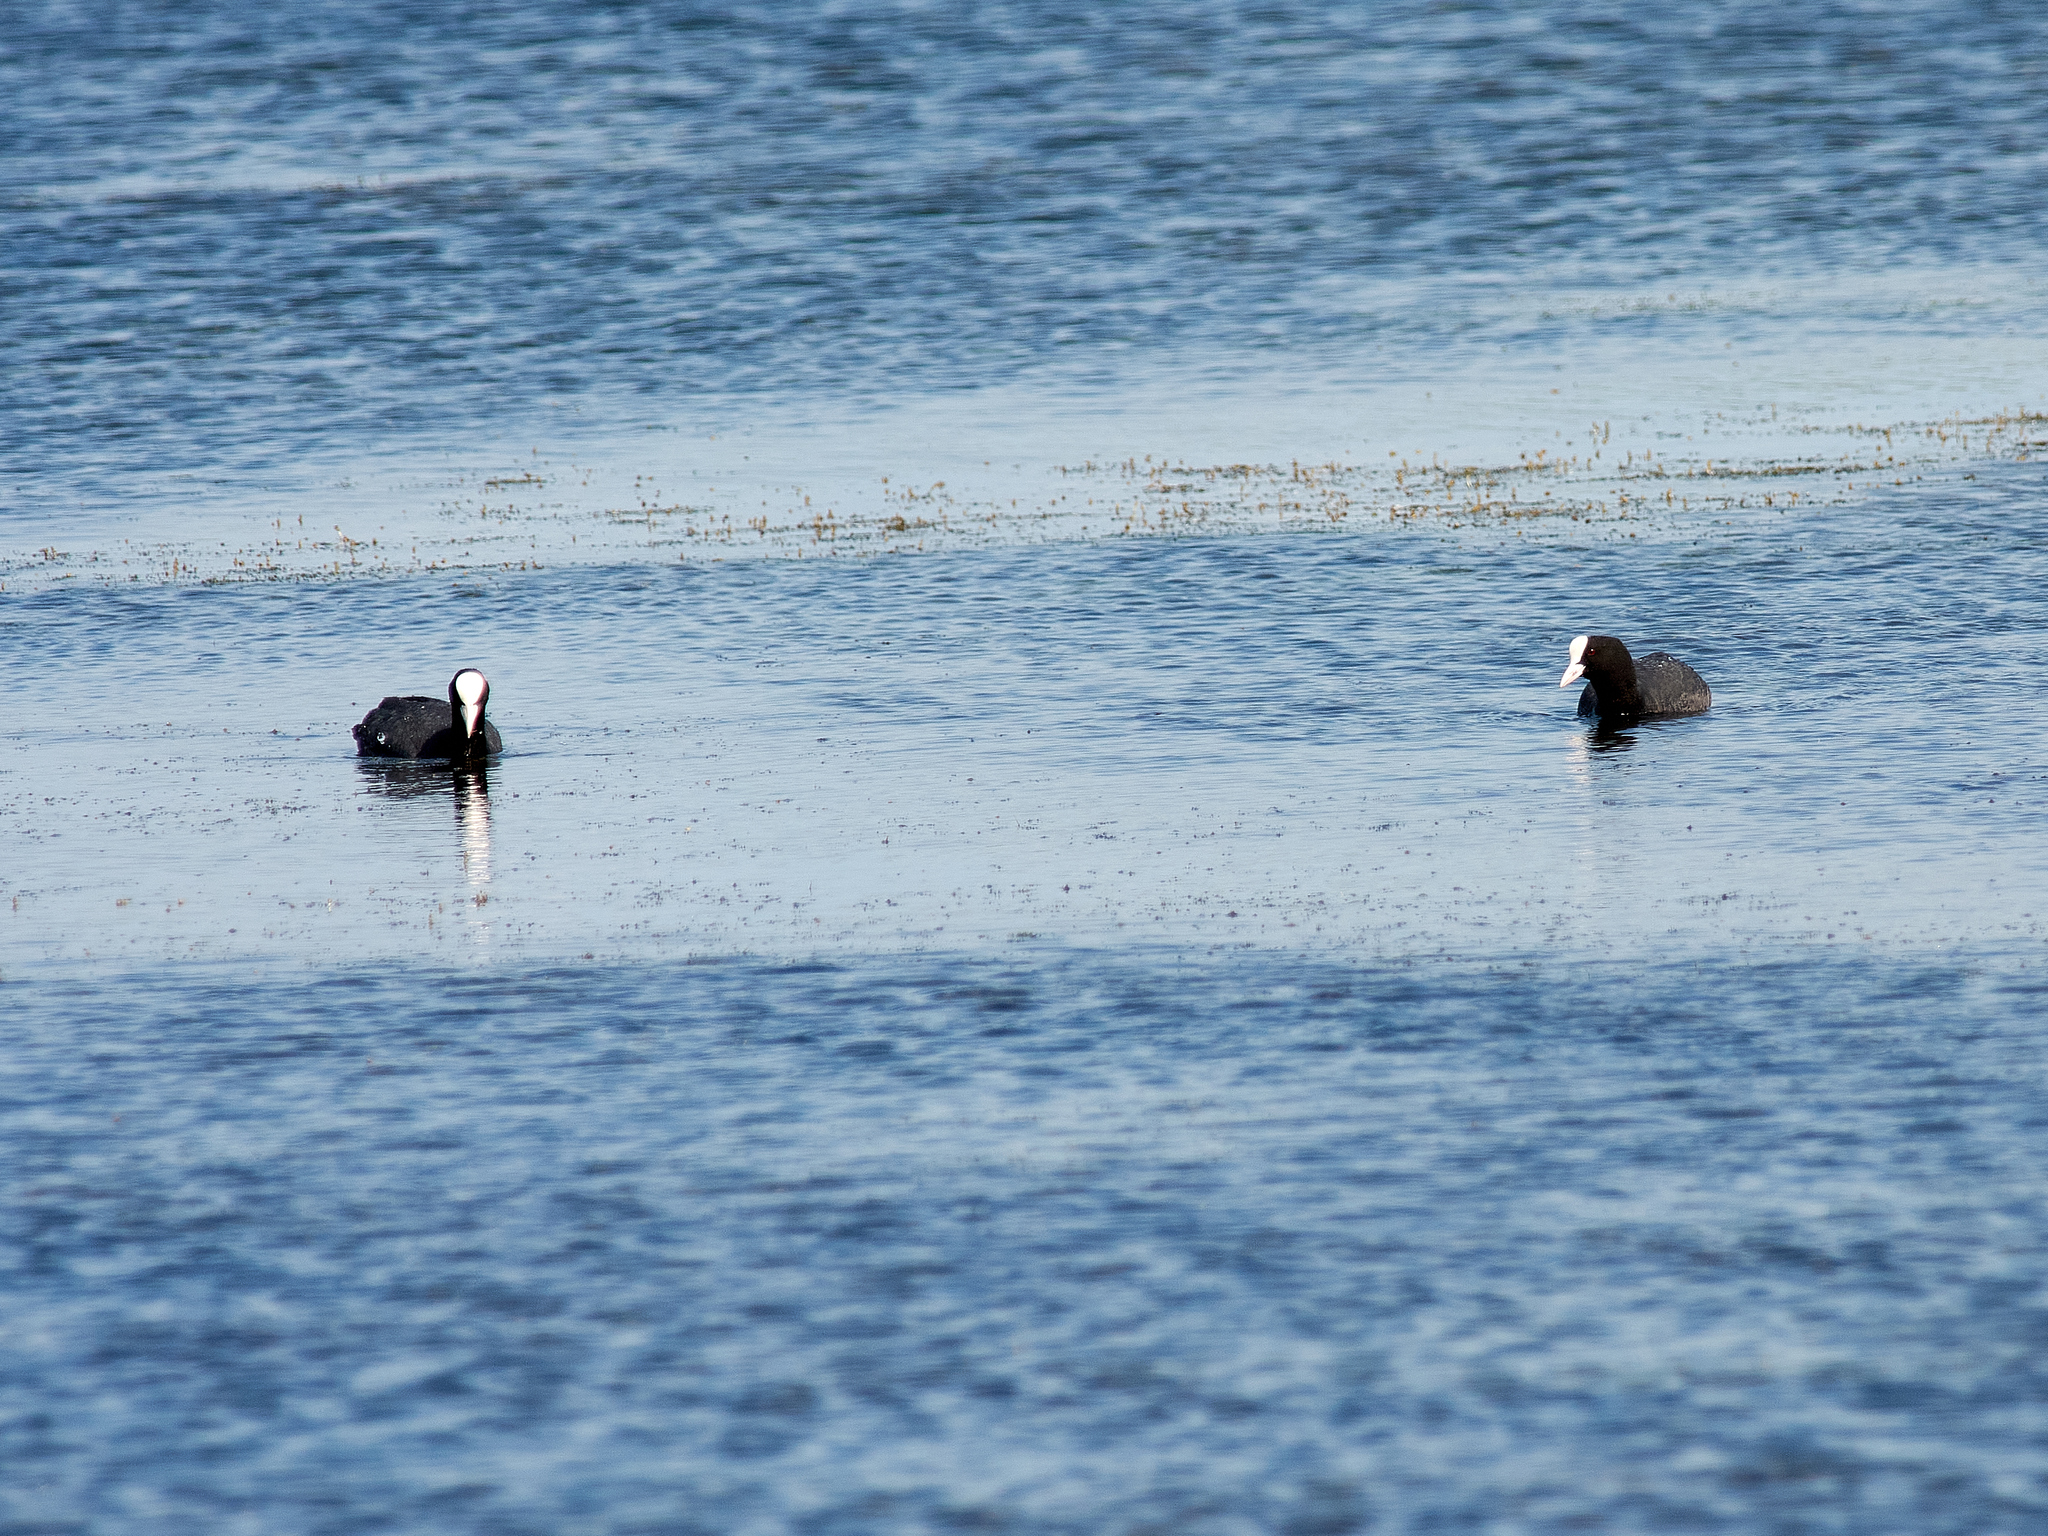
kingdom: Animalia
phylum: Chordata
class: Aves
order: Gruiformes
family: Rallidae
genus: Fulica
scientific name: Fulica atra
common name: Eurasian coot
